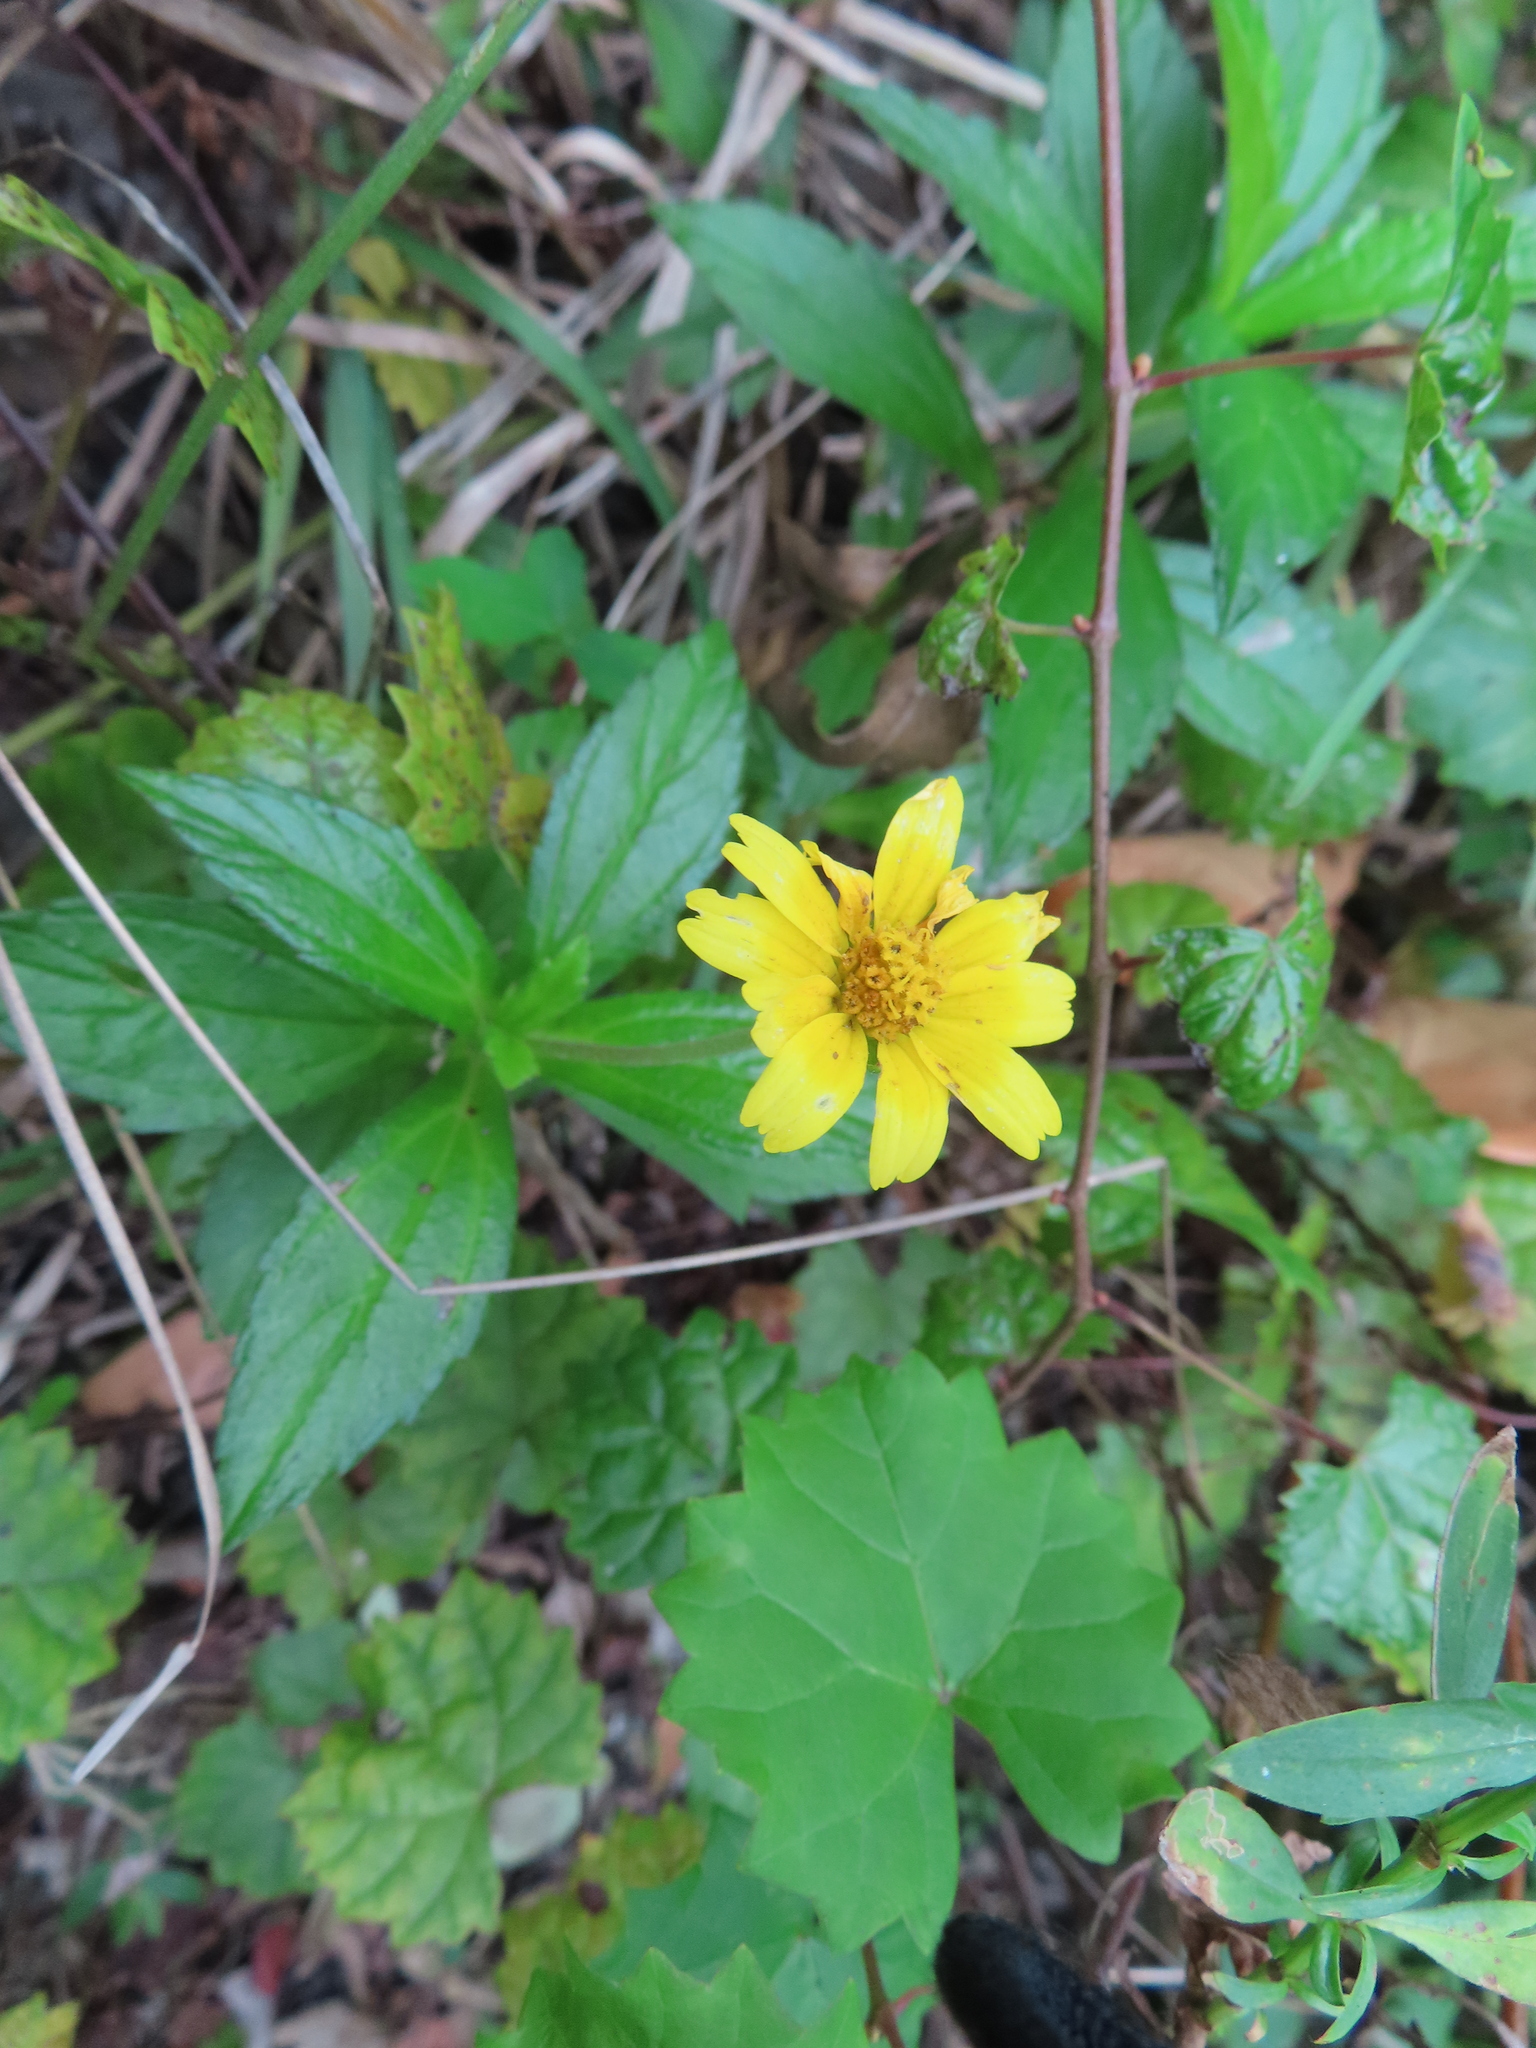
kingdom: Plantae
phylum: Tracheophyta
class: Magnoliopsida
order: Asterales
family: Asteraceae
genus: Sphagneticola
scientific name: Sphagneticola trilobata
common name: Bay biscayne creeping-oxeye
